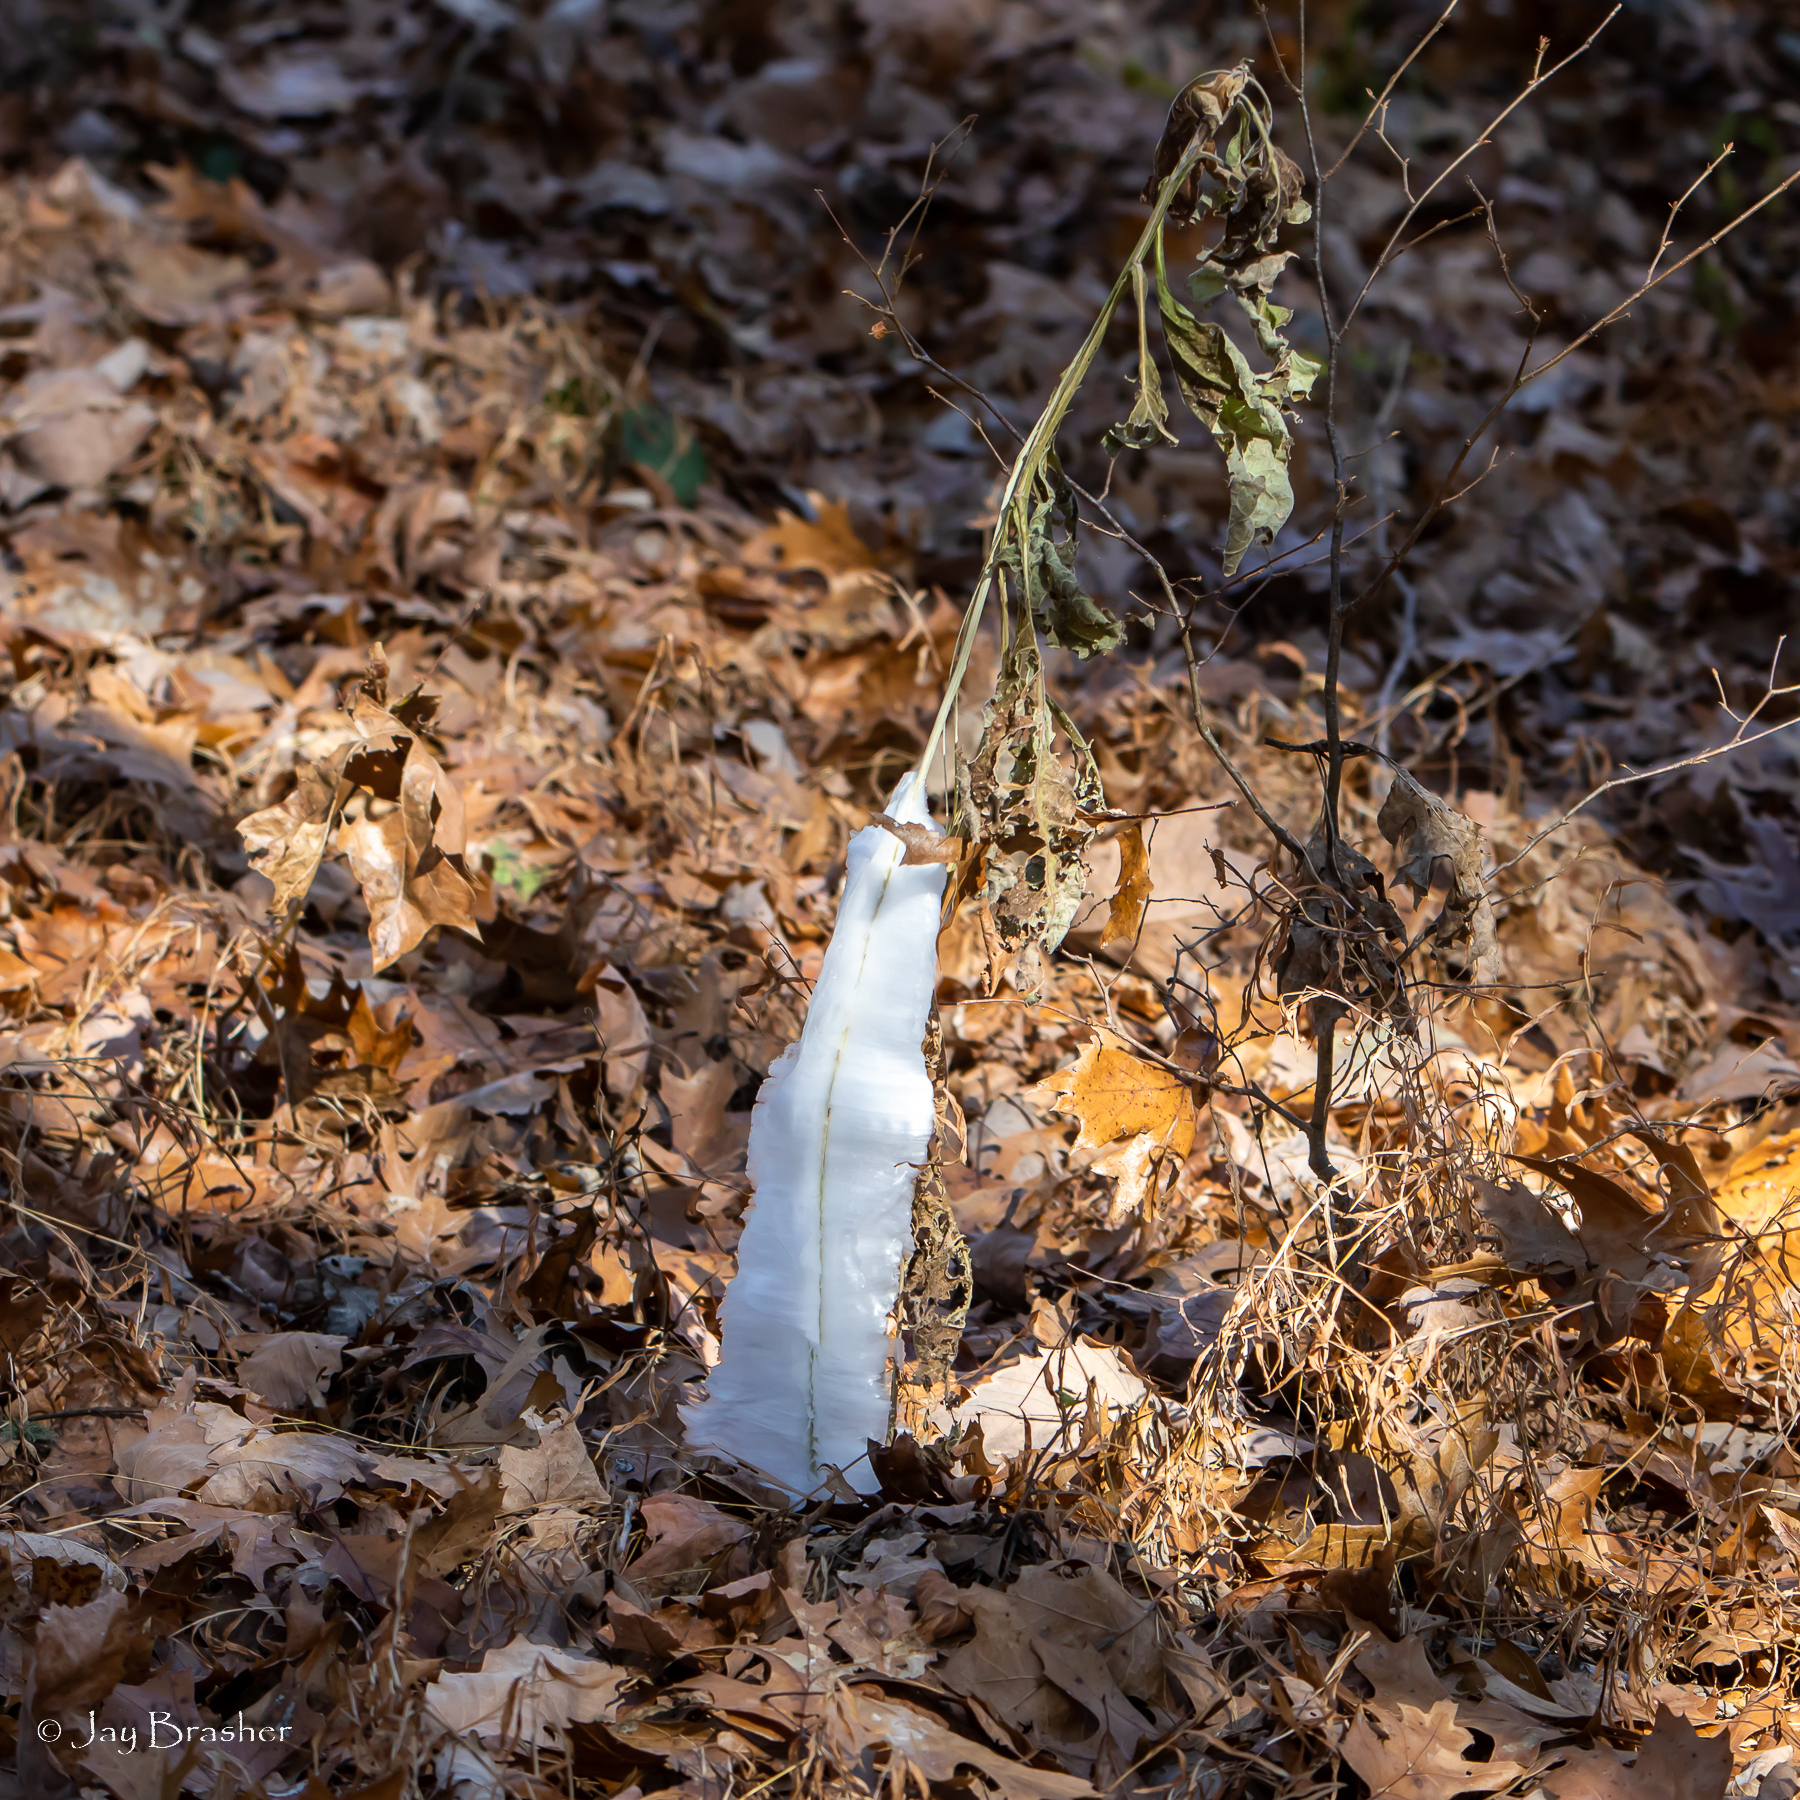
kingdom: Plantae
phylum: Tracheophyta
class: Magnoliopsida
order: Asterales
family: Asteraceae
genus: Verbesina
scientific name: Verbesina virginica
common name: Frostweed
